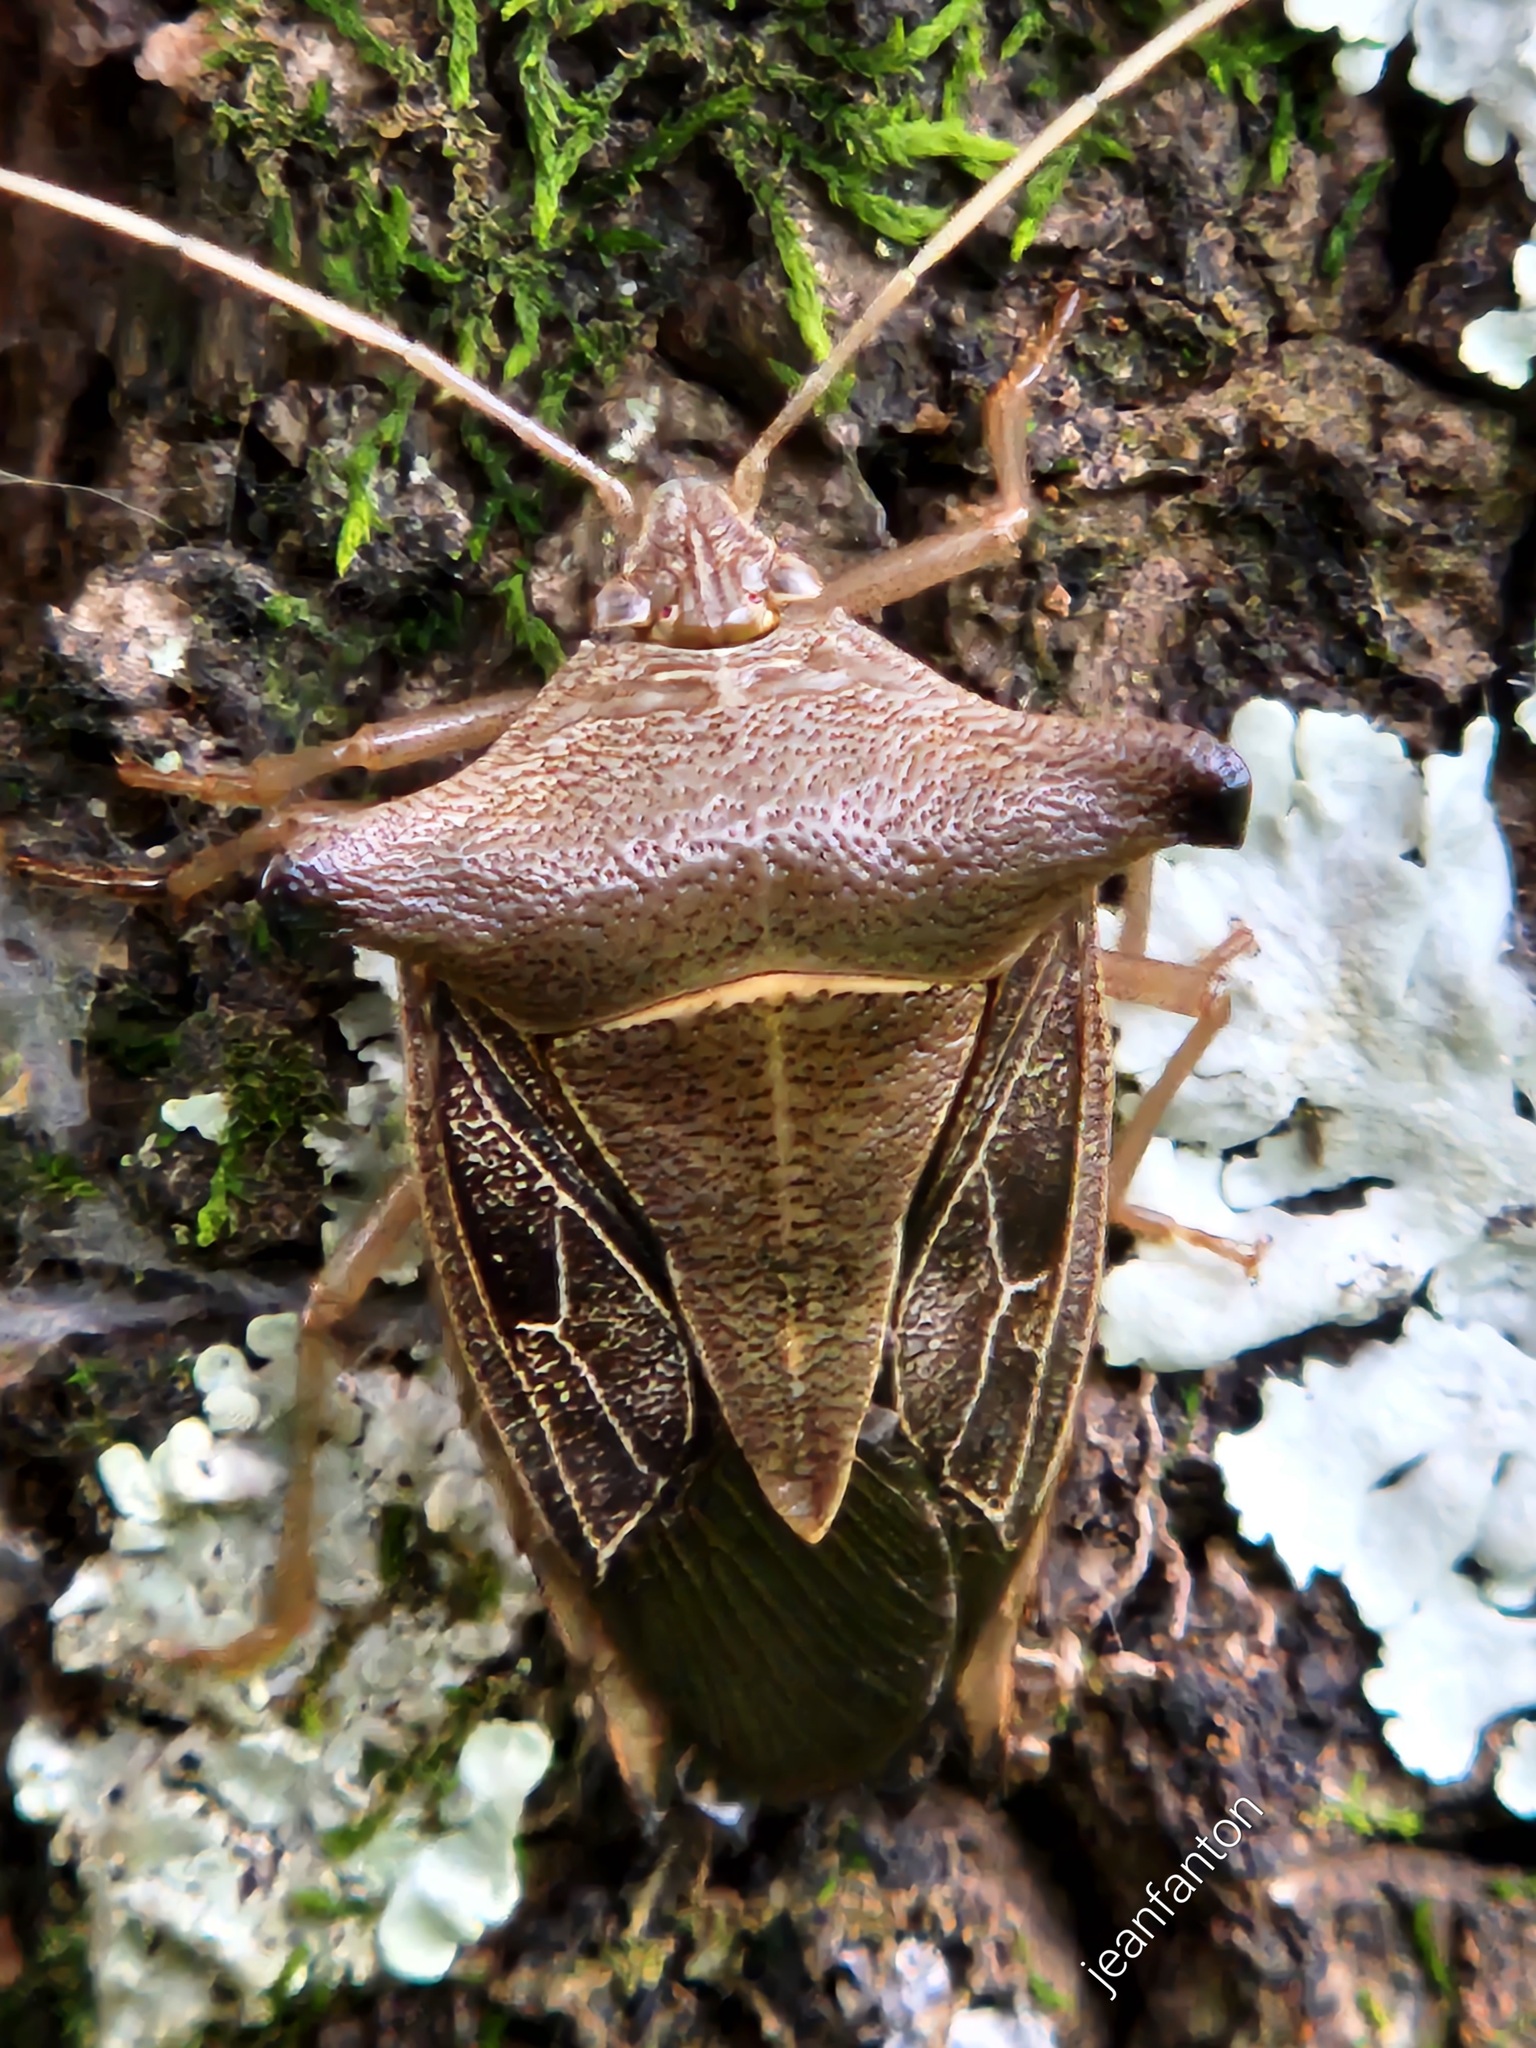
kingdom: Animalia
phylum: Arthropoda
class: Insecta
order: Hemiptera
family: Pentatomidae
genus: Edessa
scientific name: Edessa
